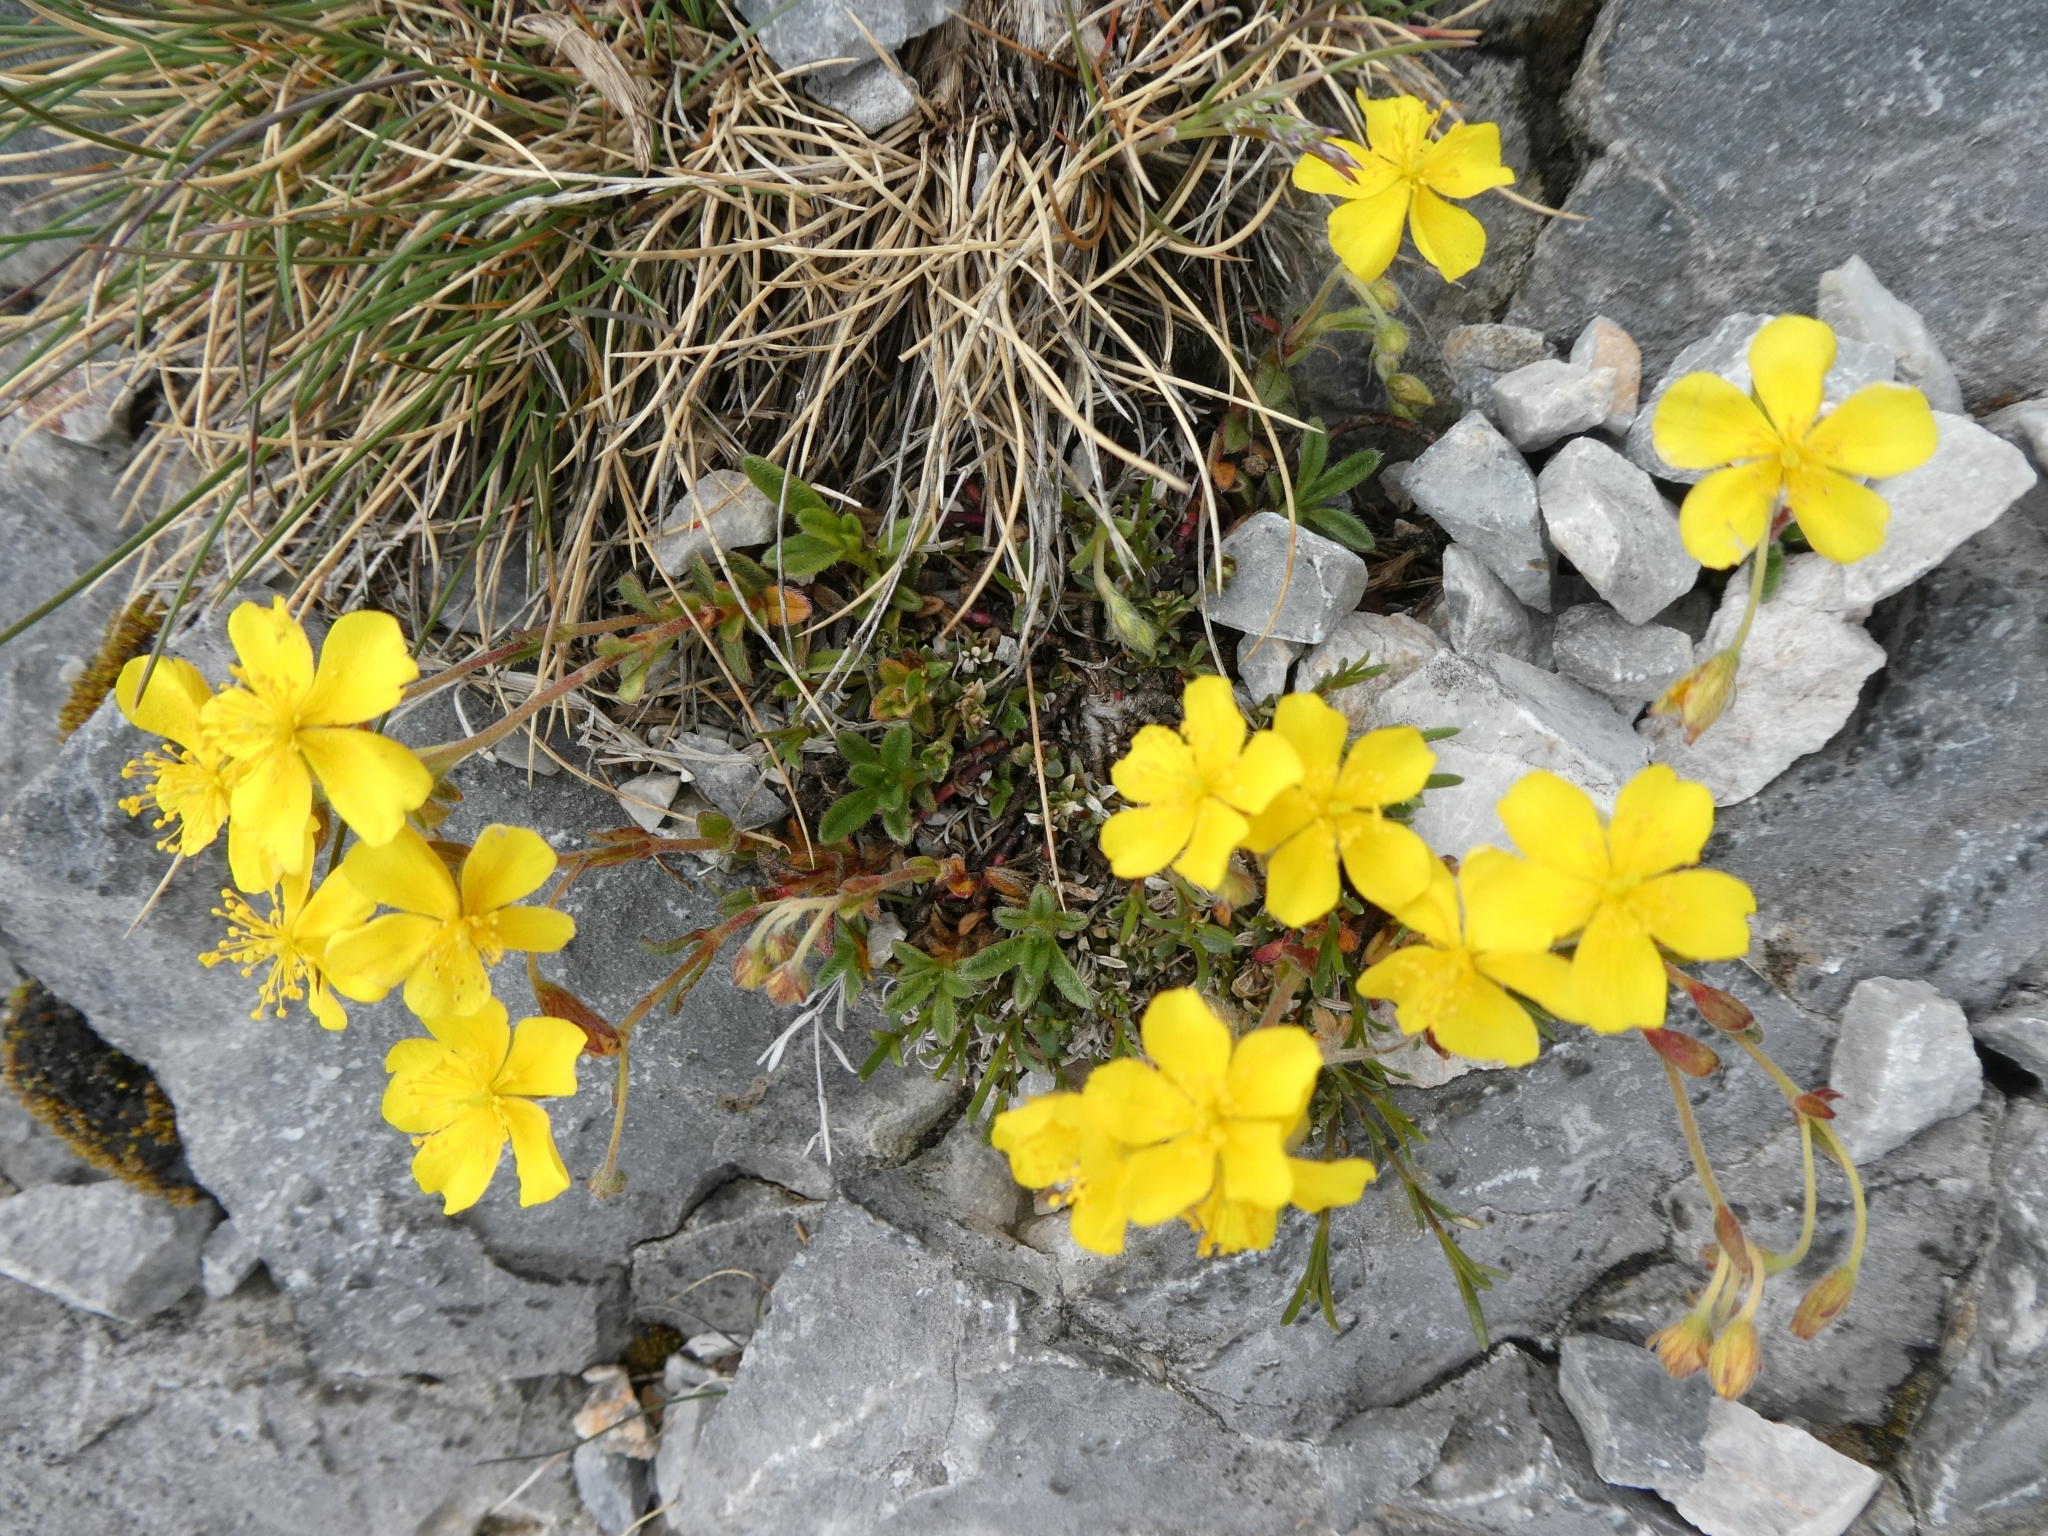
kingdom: Plantae
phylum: Tracheophyta
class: Magnoliopsida
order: Malvales
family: Cistaceae
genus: Helianthemum
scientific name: Helianthemum alpestre
